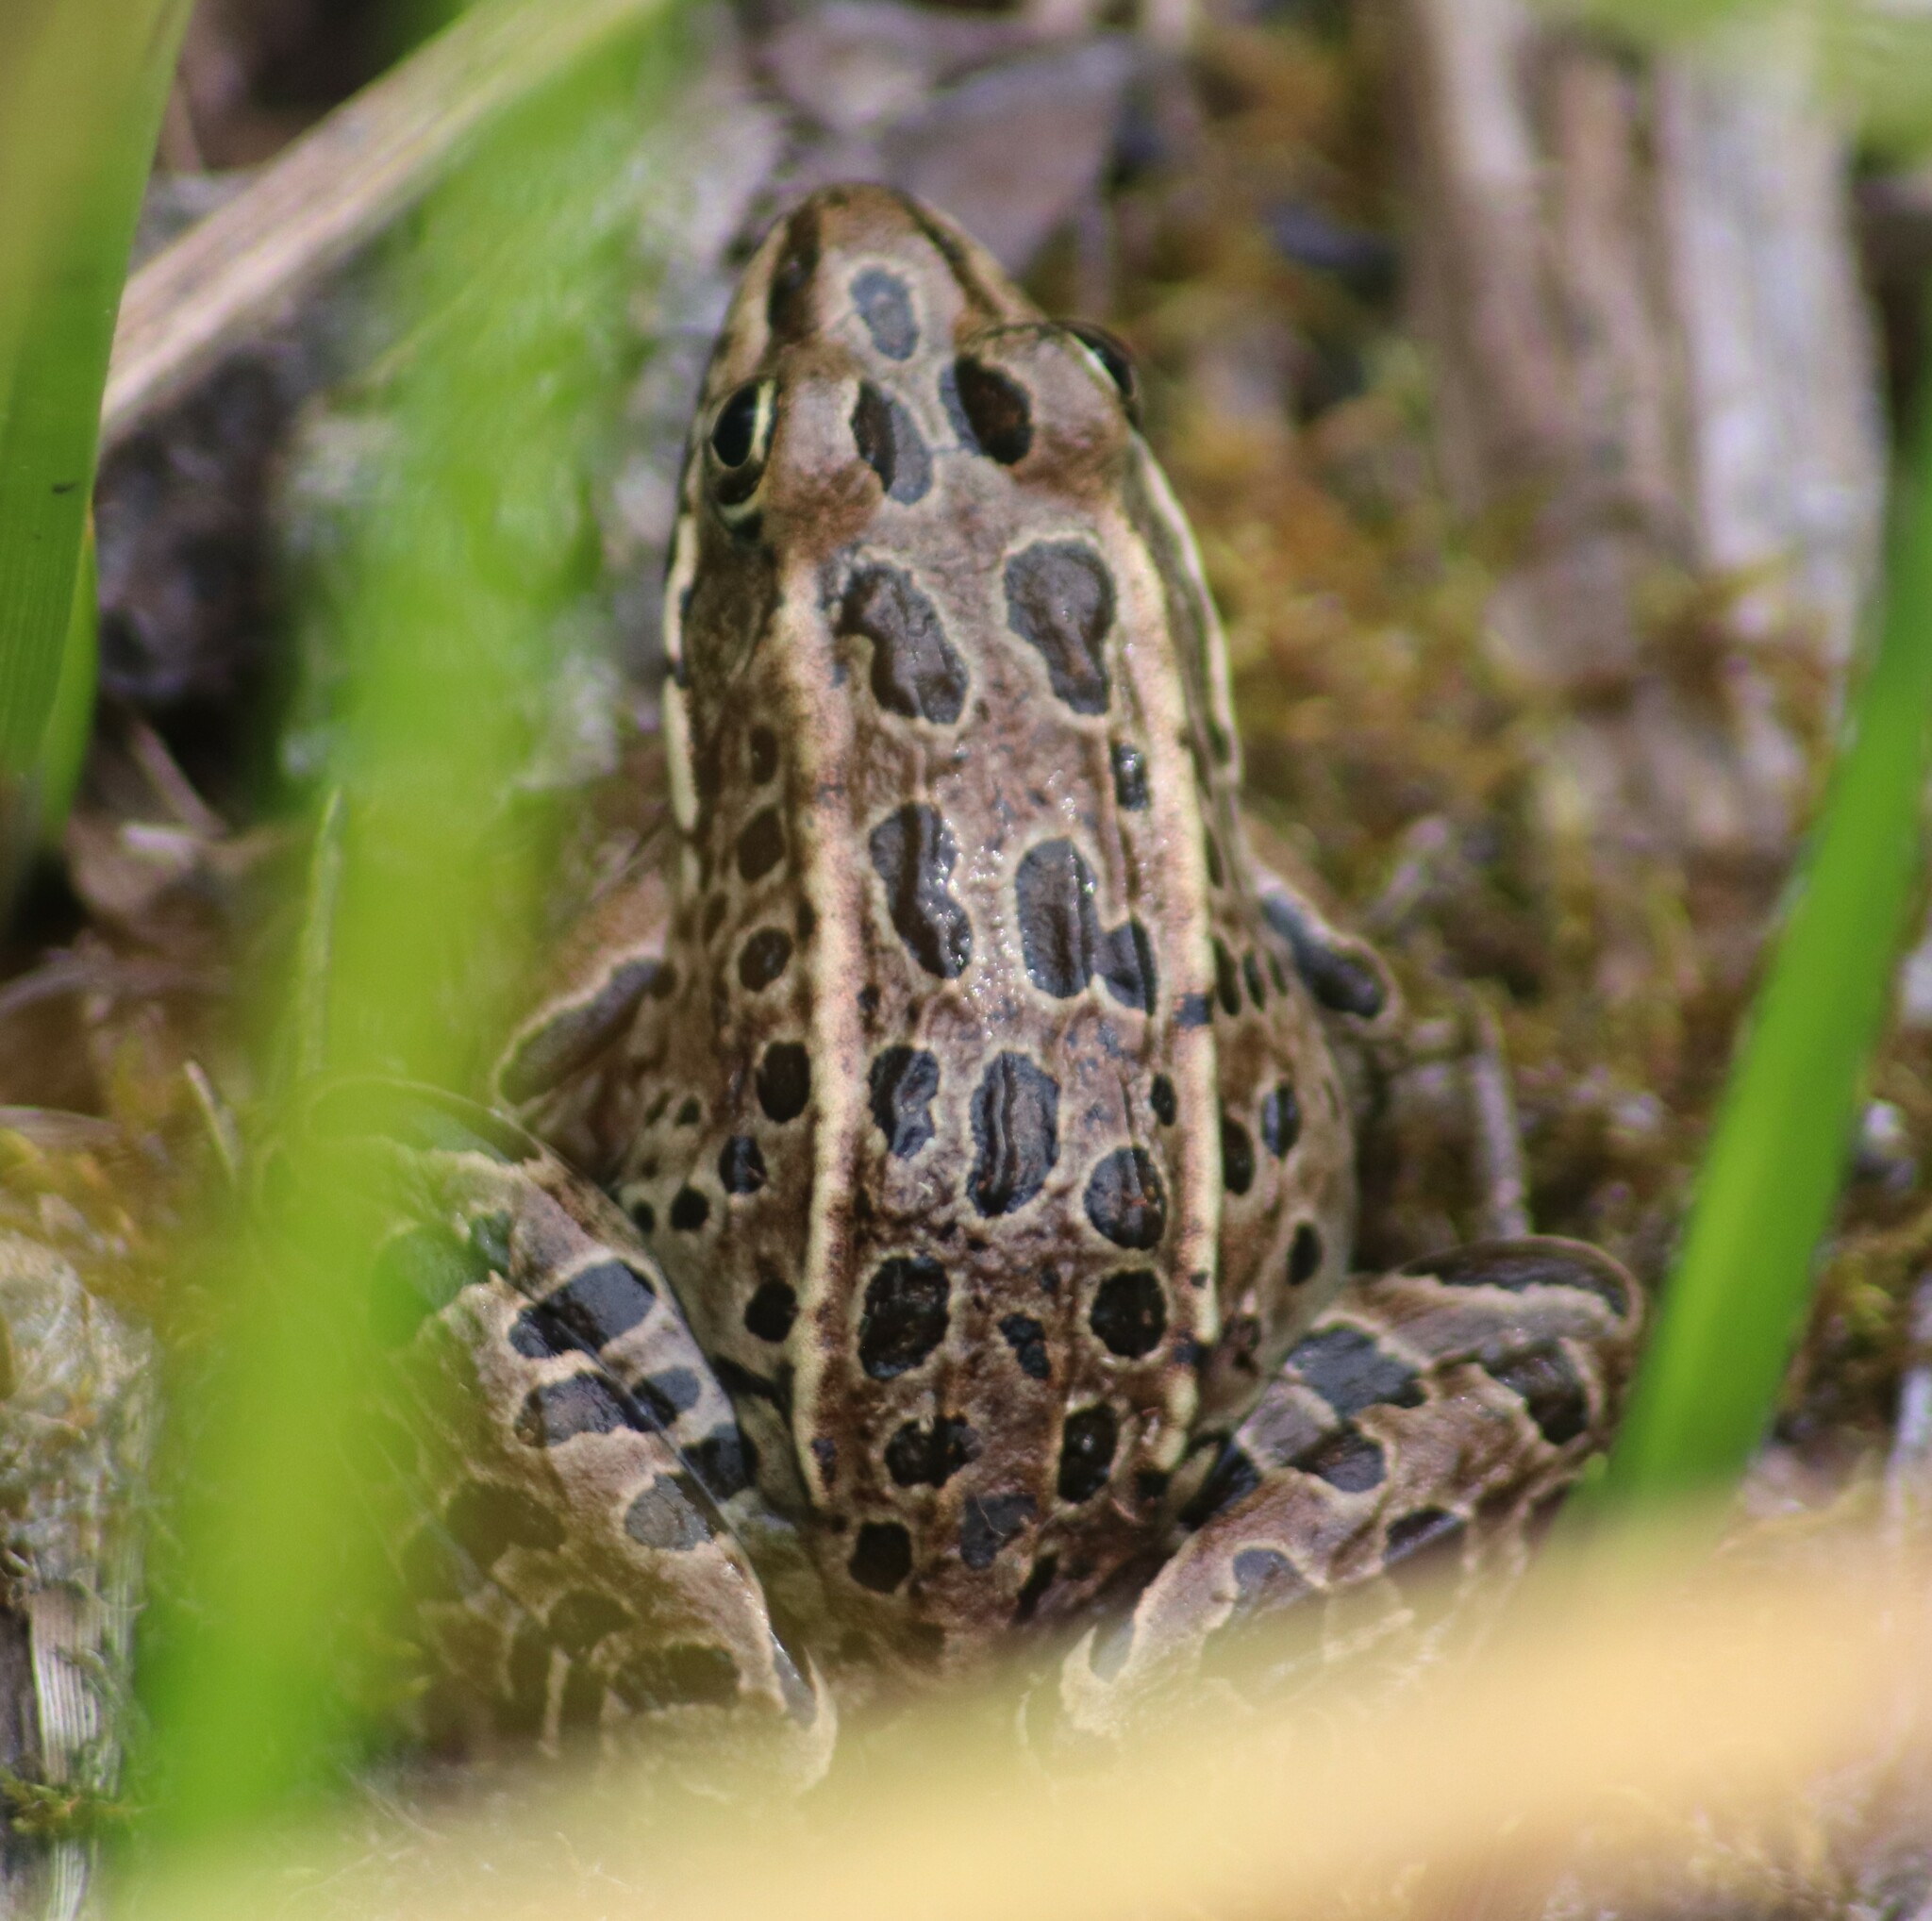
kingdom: Animalia
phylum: Chordata
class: Amphibia
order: Anura
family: Ranidae
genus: Lithobates
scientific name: Lithobates pipiens
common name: Northern leopard frog
